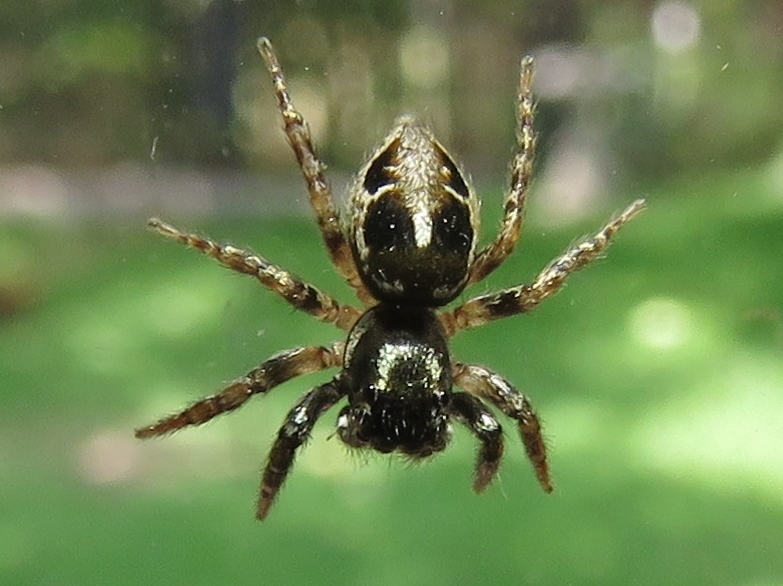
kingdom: Animalia
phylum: Arthropoda
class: Arachnida
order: Araneae
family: Salticidae
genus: Anasaitis
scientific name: Anasaitis canosa
